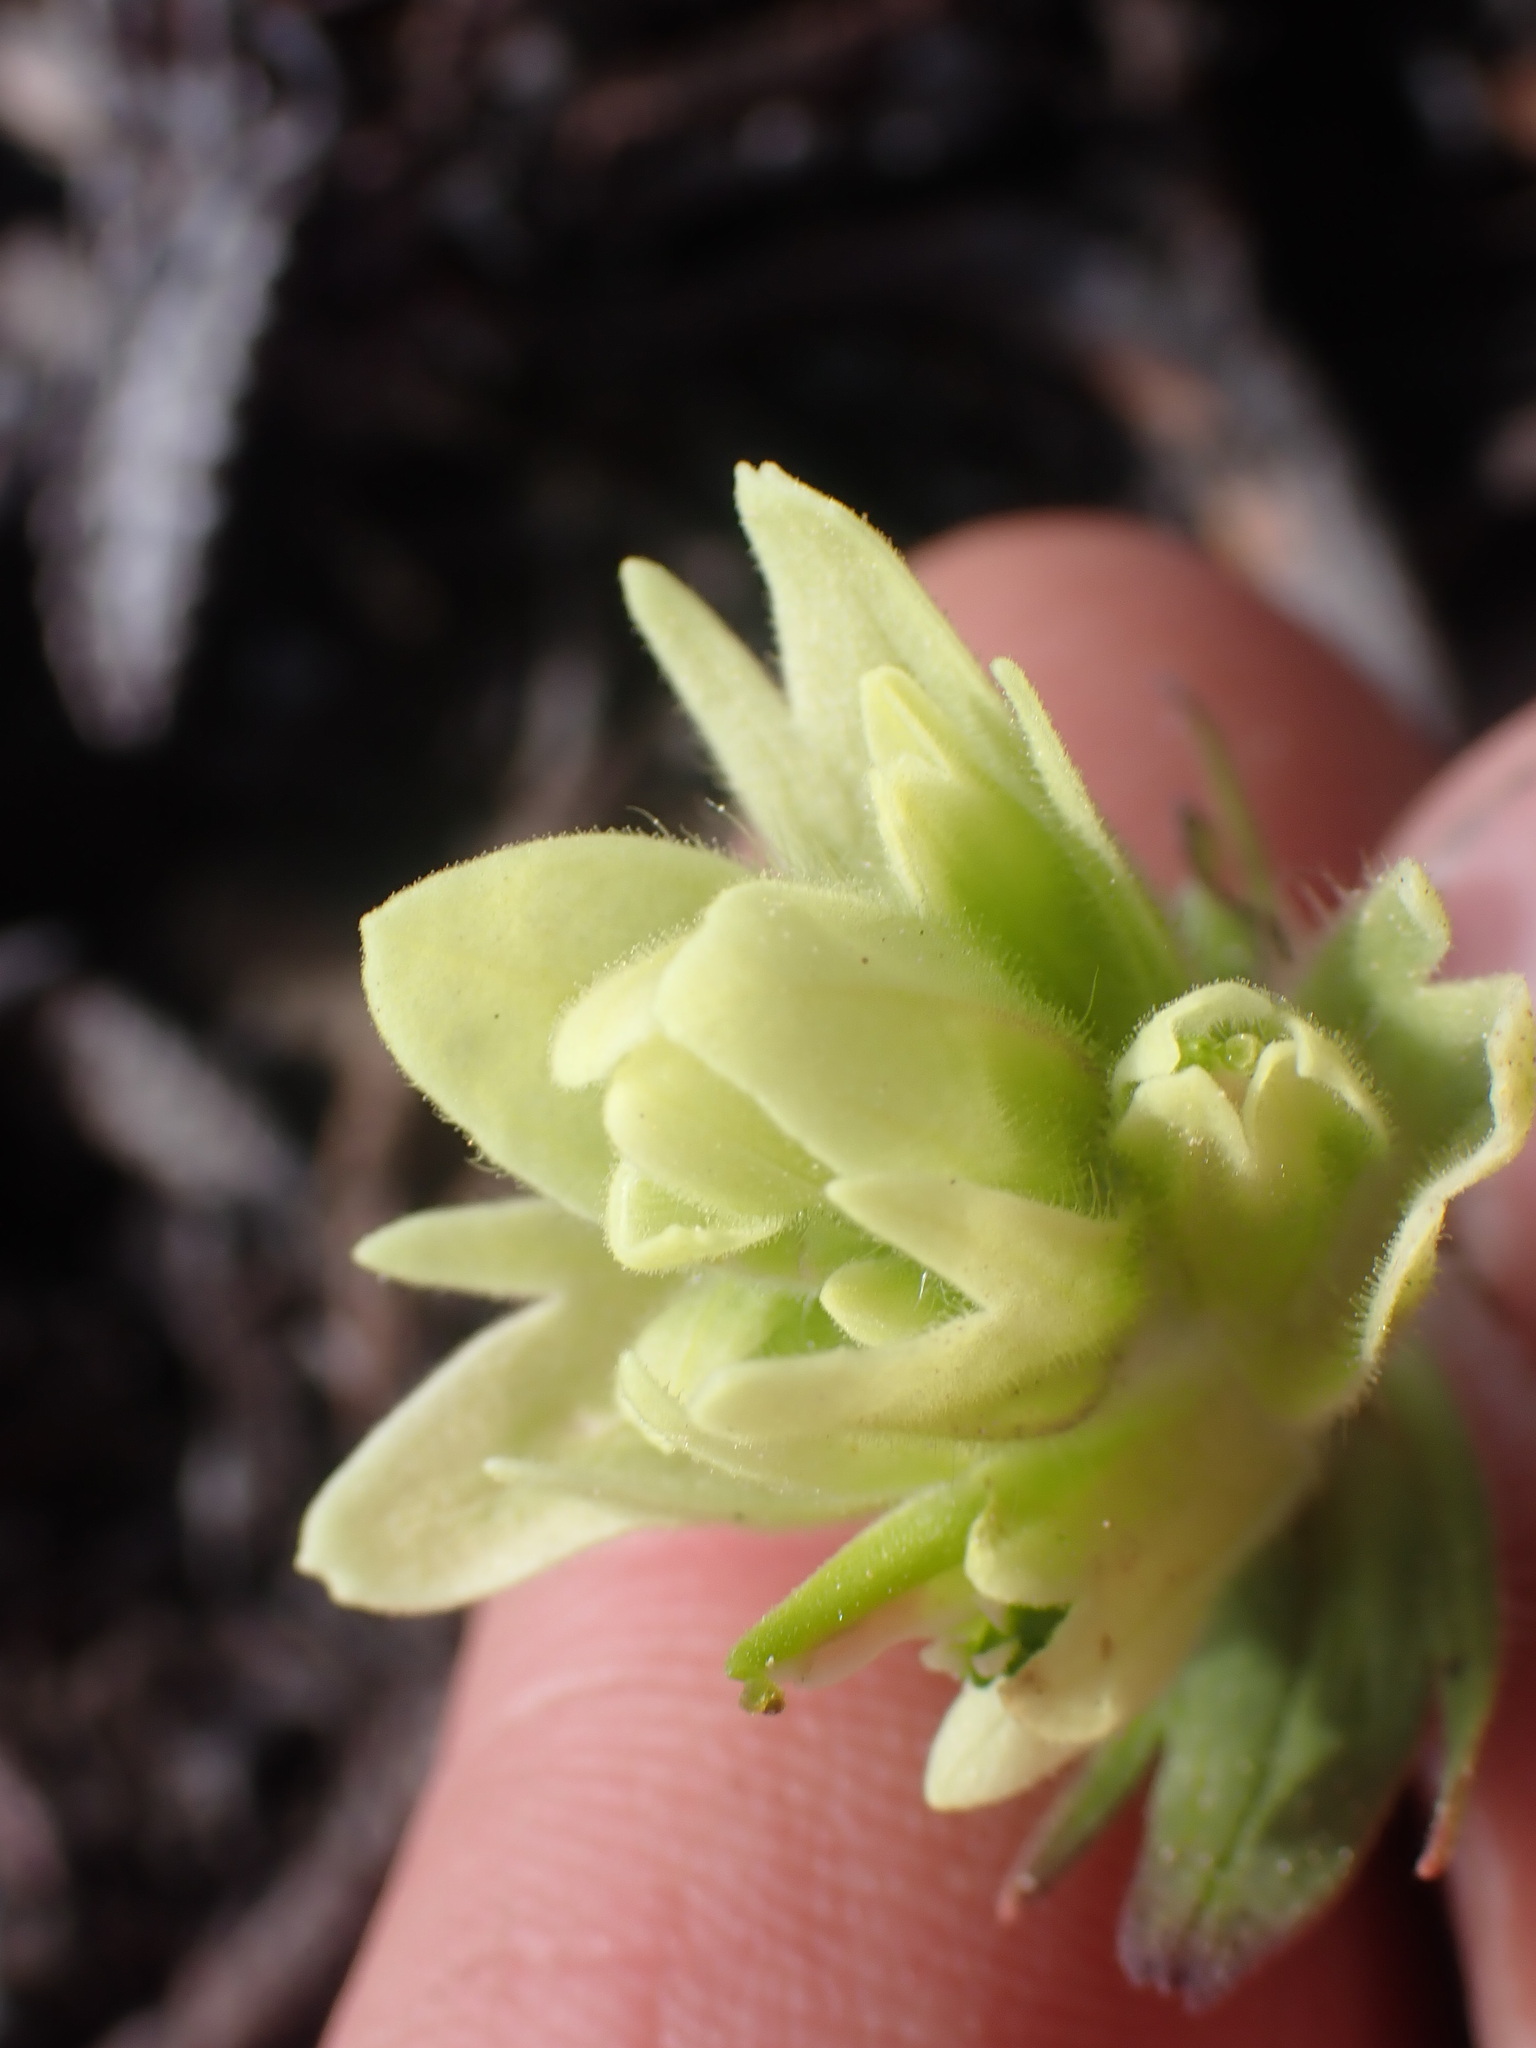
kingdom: Plantae
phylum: Tracheophyta
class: Magnoliopsida
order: Lamiales
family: Orobanchaceae
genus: Castilleja
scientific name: Castilleja occidentalis
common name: Western paintbrush
